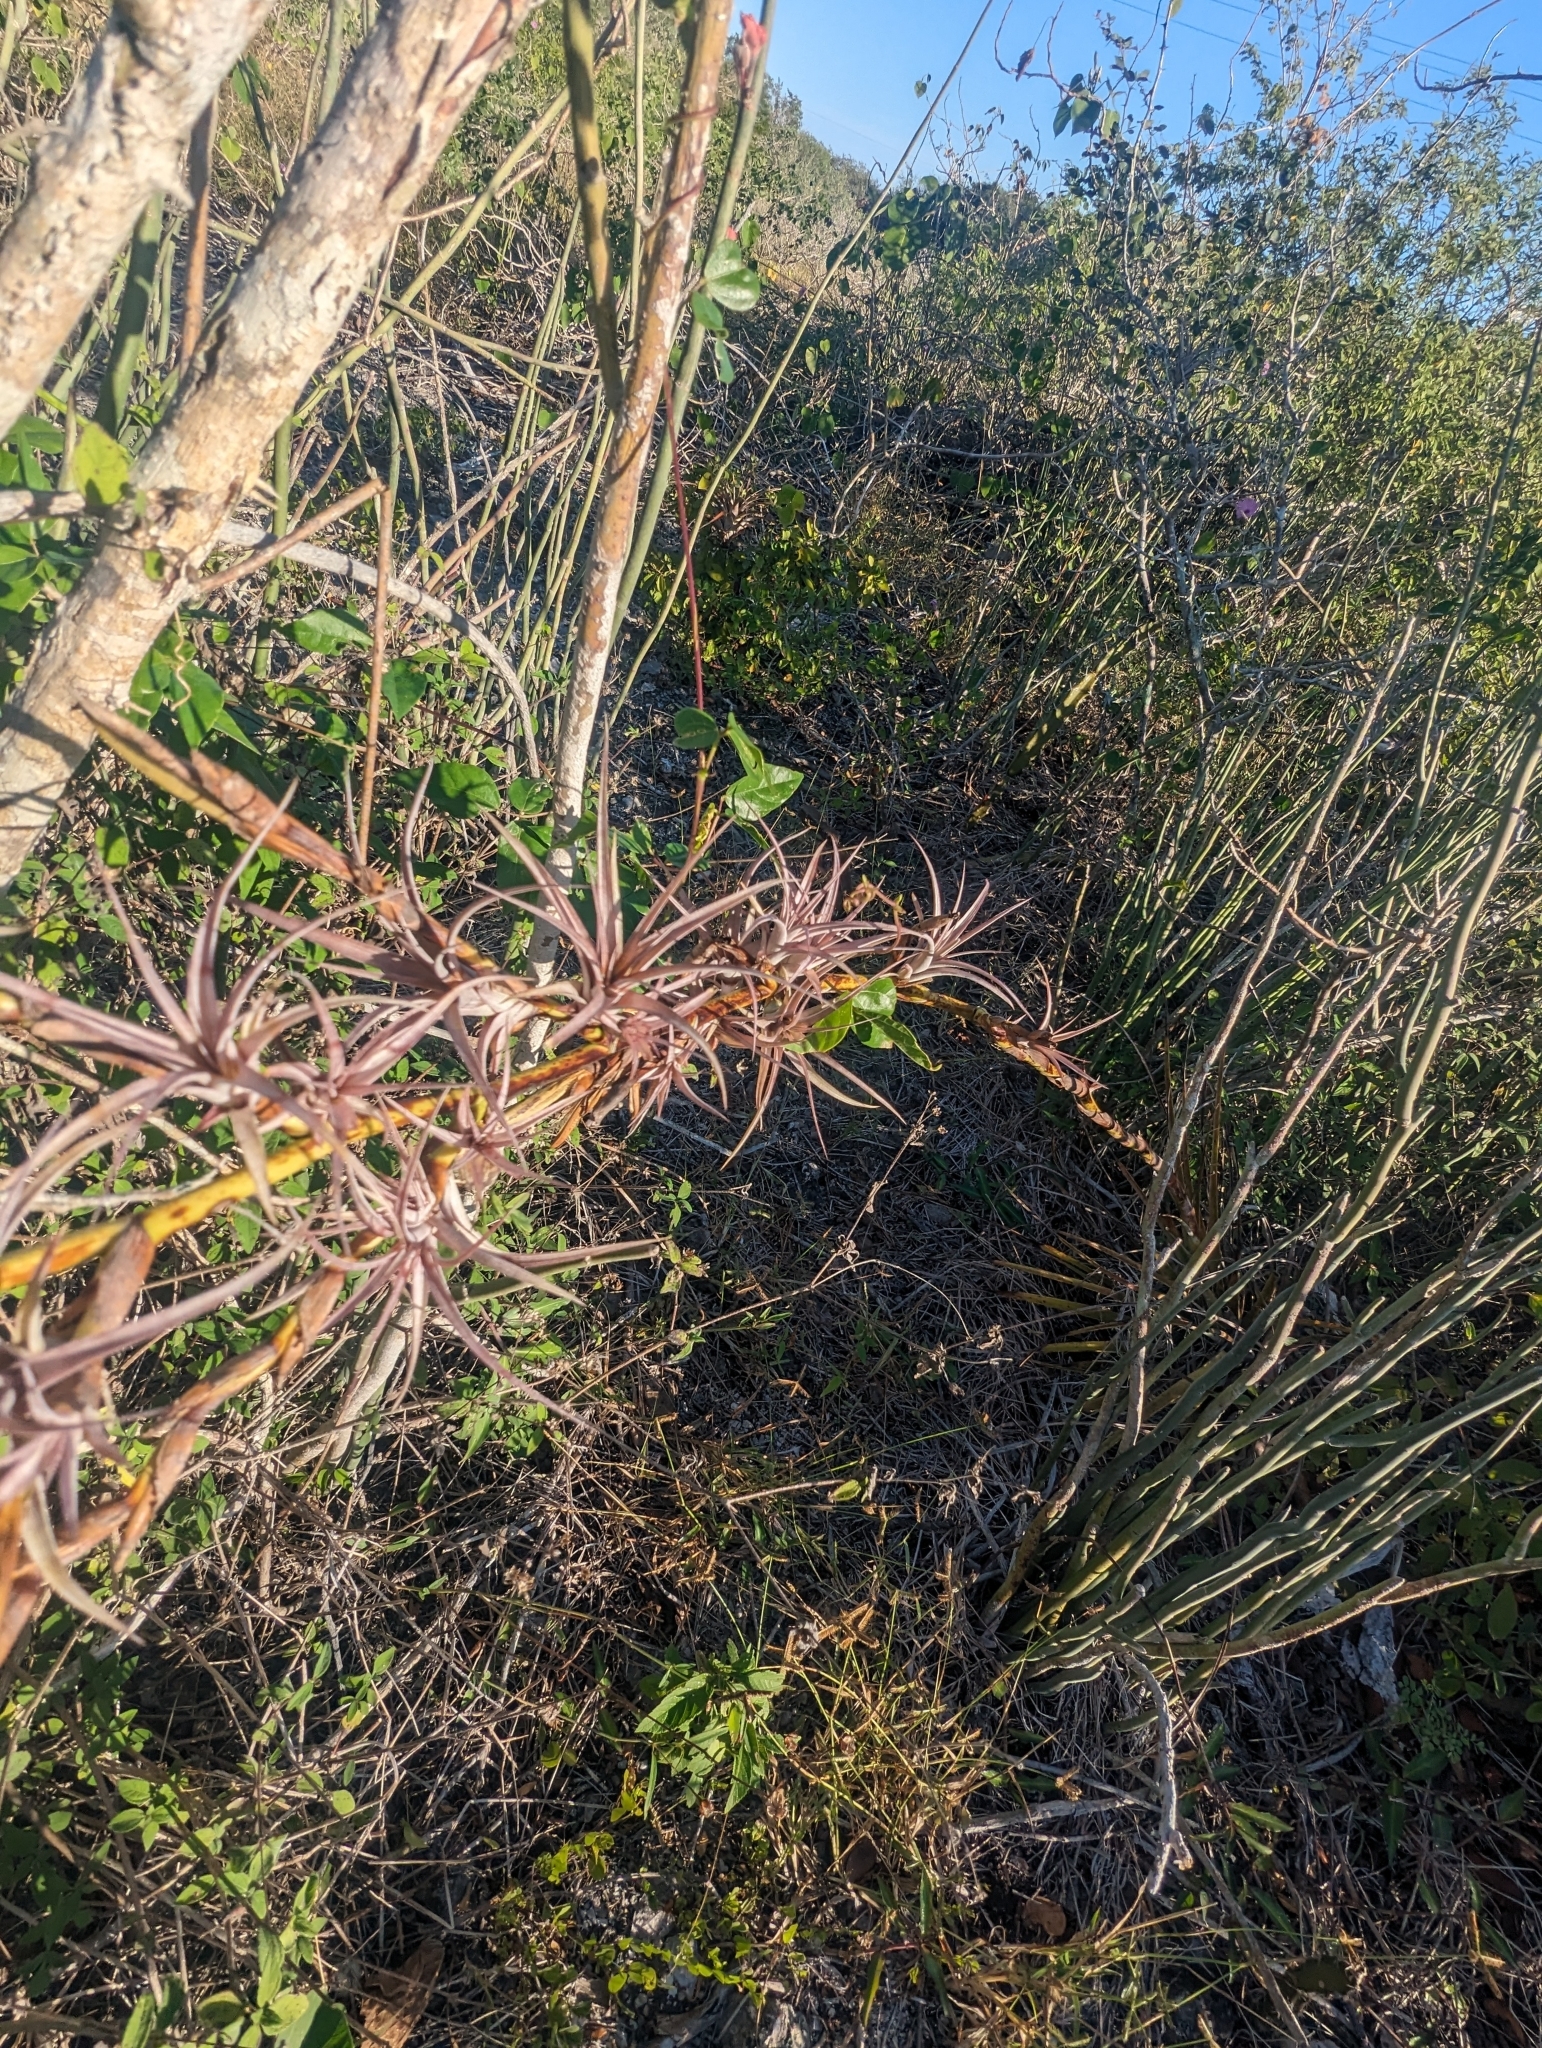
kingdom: Plantae
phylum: Tracheophyta
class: Liliopsida
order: Poales
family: Bromeliaceae
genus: Tillandsia
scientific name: Tillandsia dasyliriifolia
